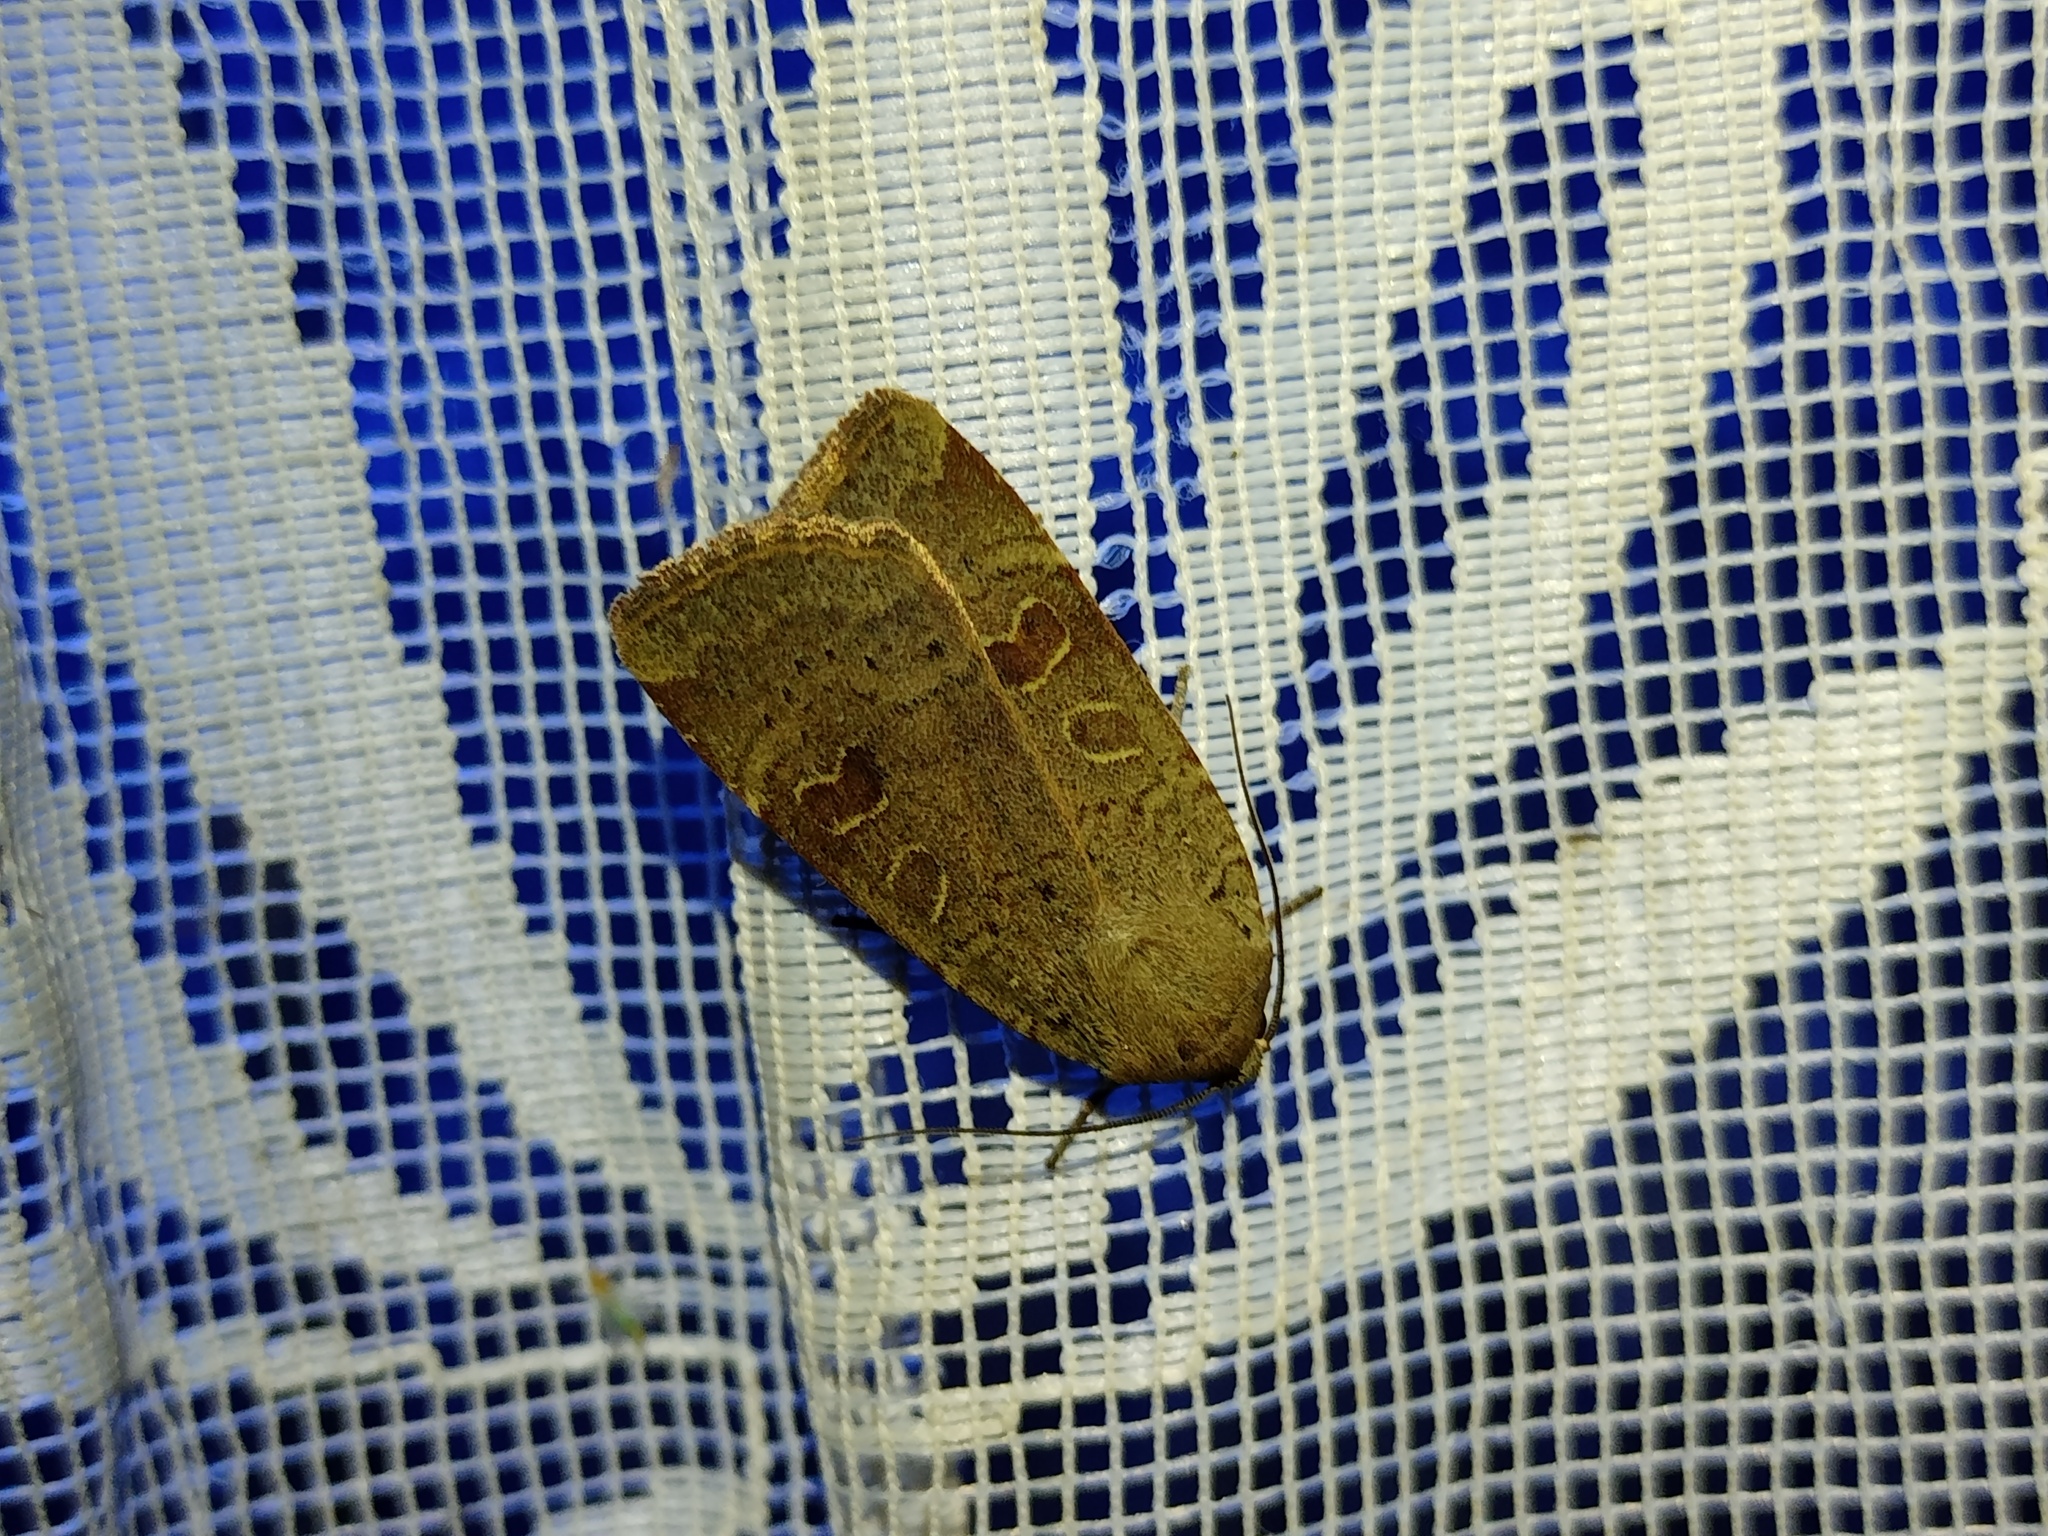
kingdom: Animalia
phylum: Arthropoda
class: Insecta
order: Lepidoptera
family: Noctuidae
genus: Noctua
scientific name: Noctua comes
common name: Lesser yellow underwing
